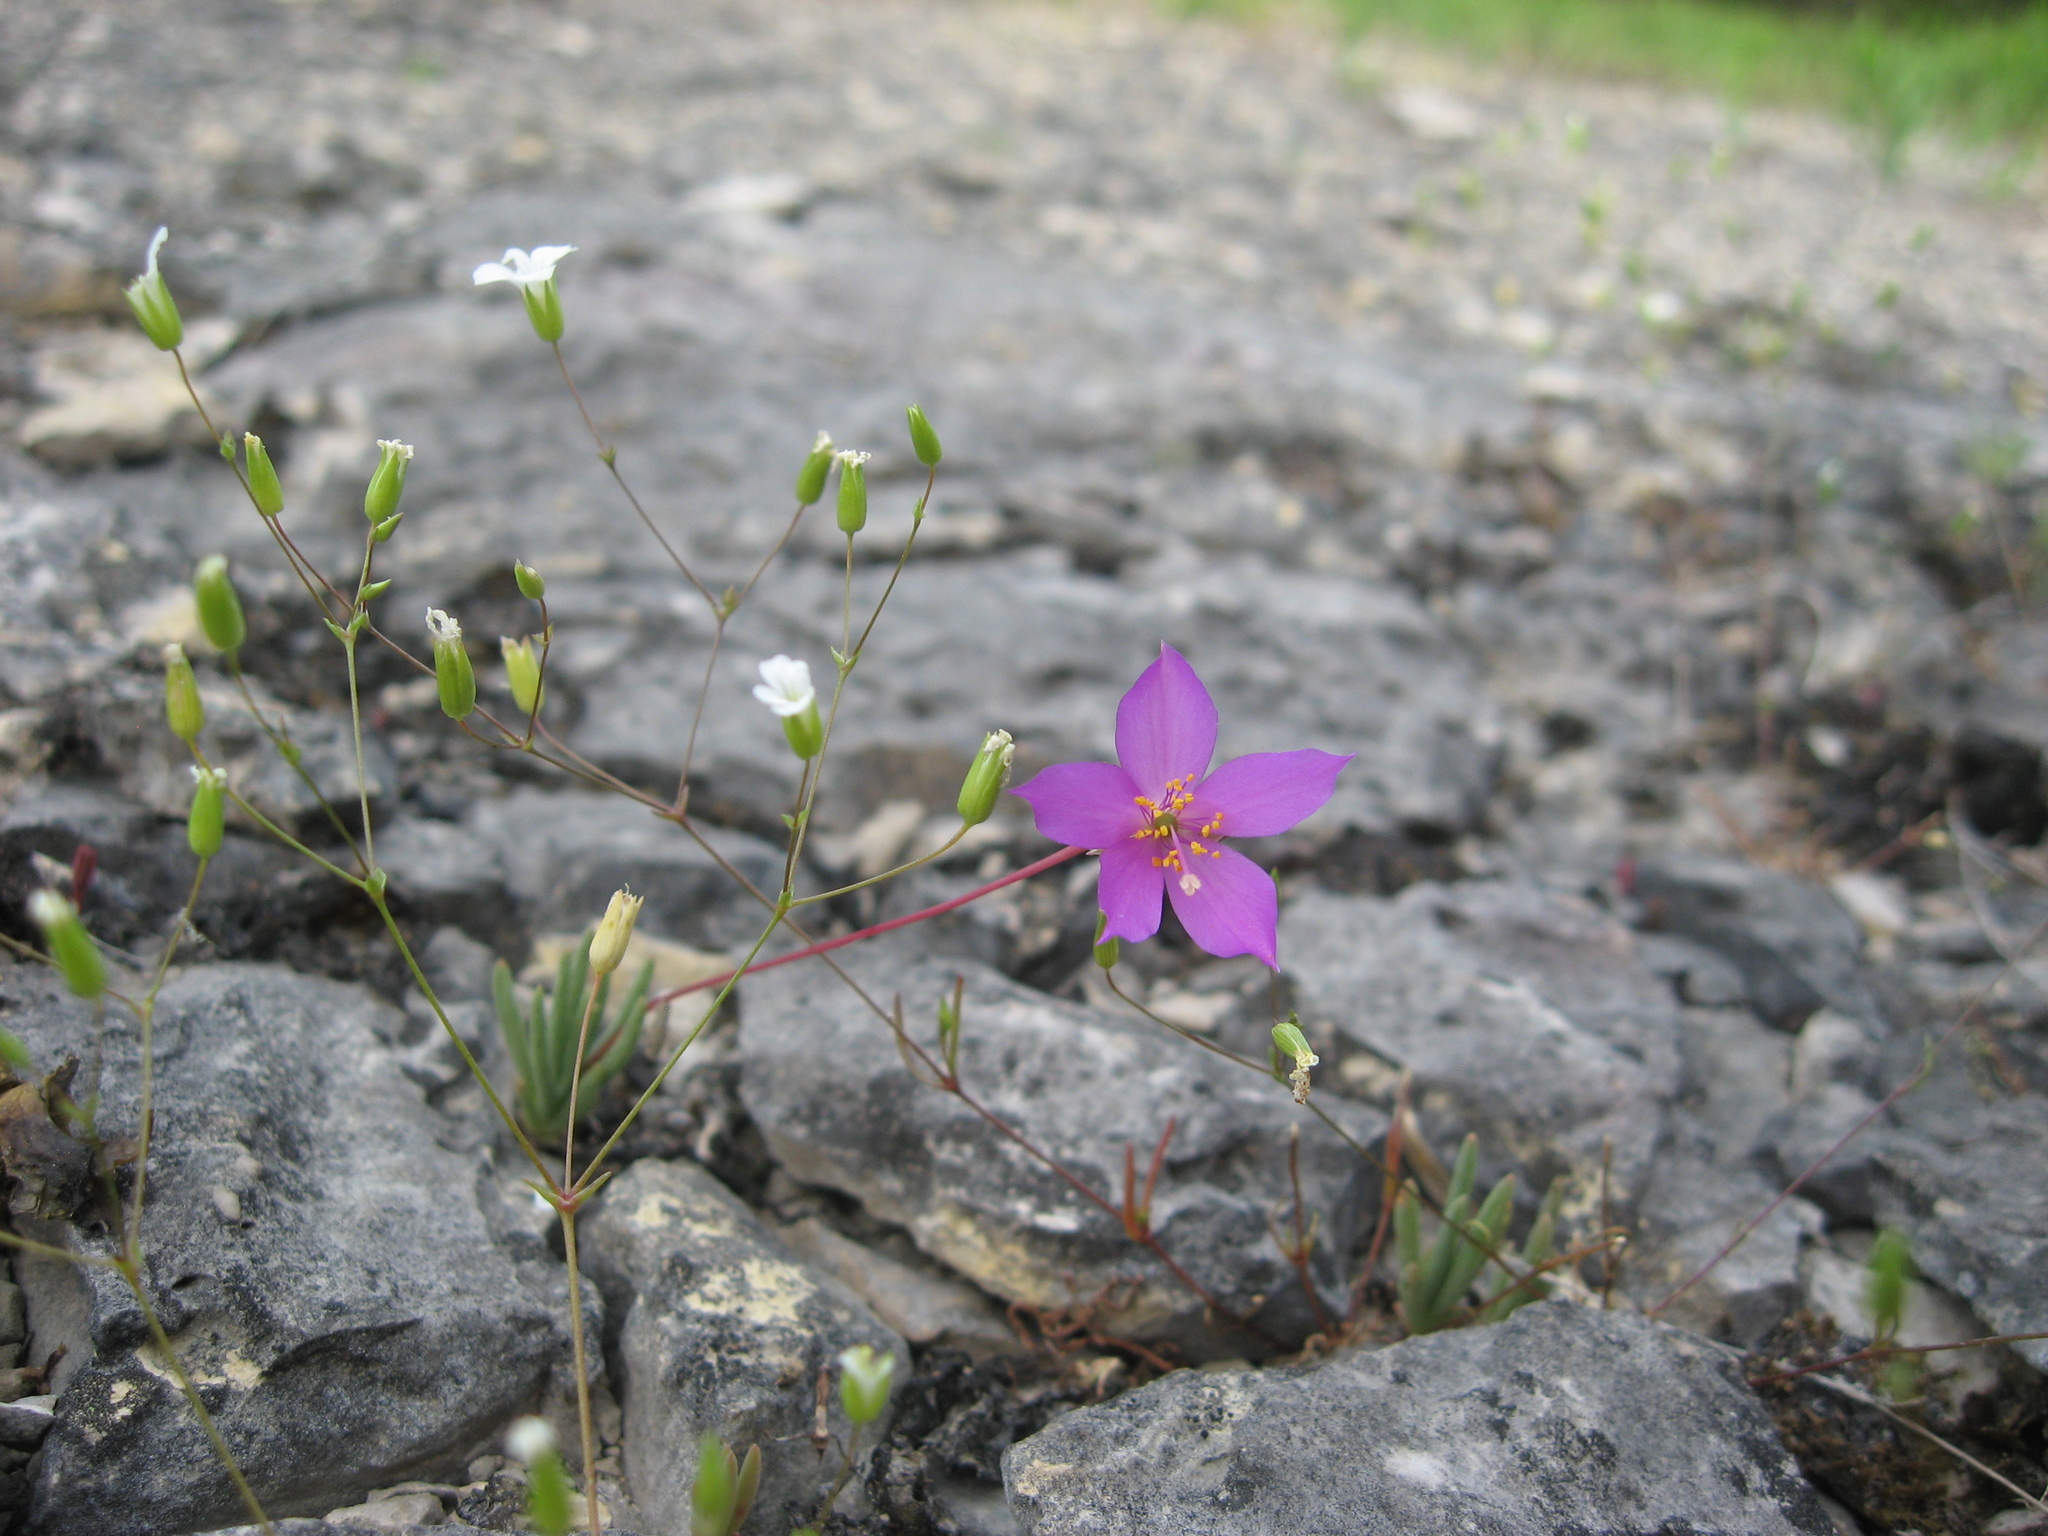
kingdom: Plantae
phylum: Tracheophyta
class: Magnoliopsida
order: Caryophyllales
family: Montiaceae
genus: Phemeranthus
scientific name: Phemeranthus calcaricus
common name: Limestone fameflower
